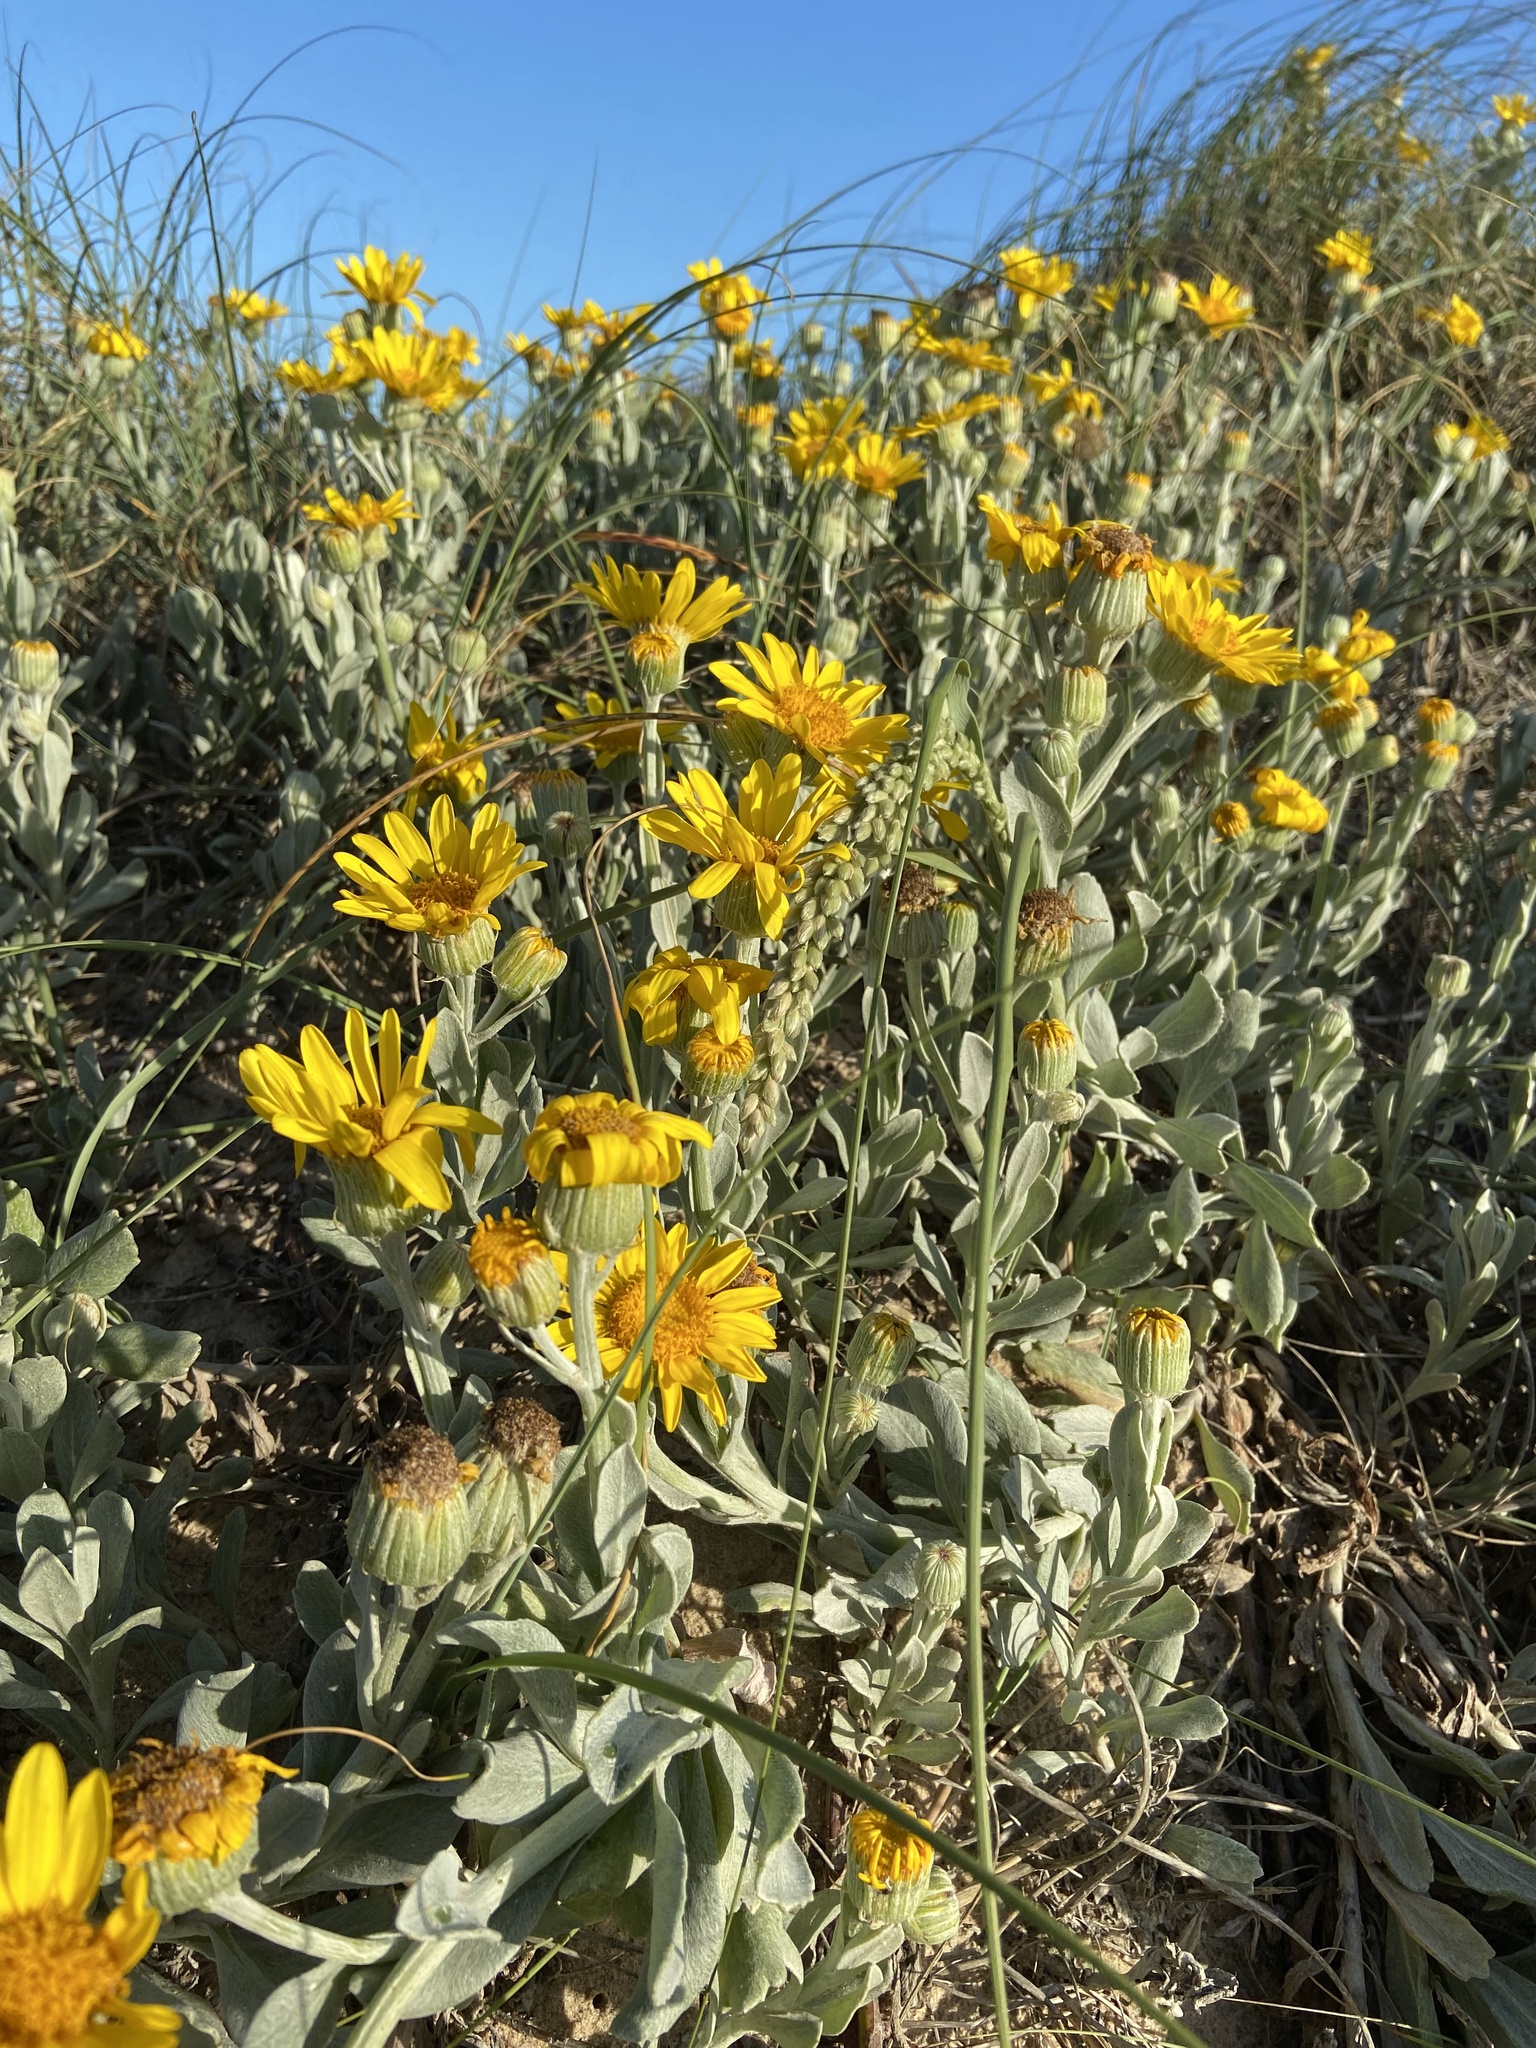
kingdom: Plantae
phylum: Tracheophyta
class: Magnoliopsida
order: Asterales
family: Asteraceae
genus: Senecio
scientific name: Senecio crassiflorus
